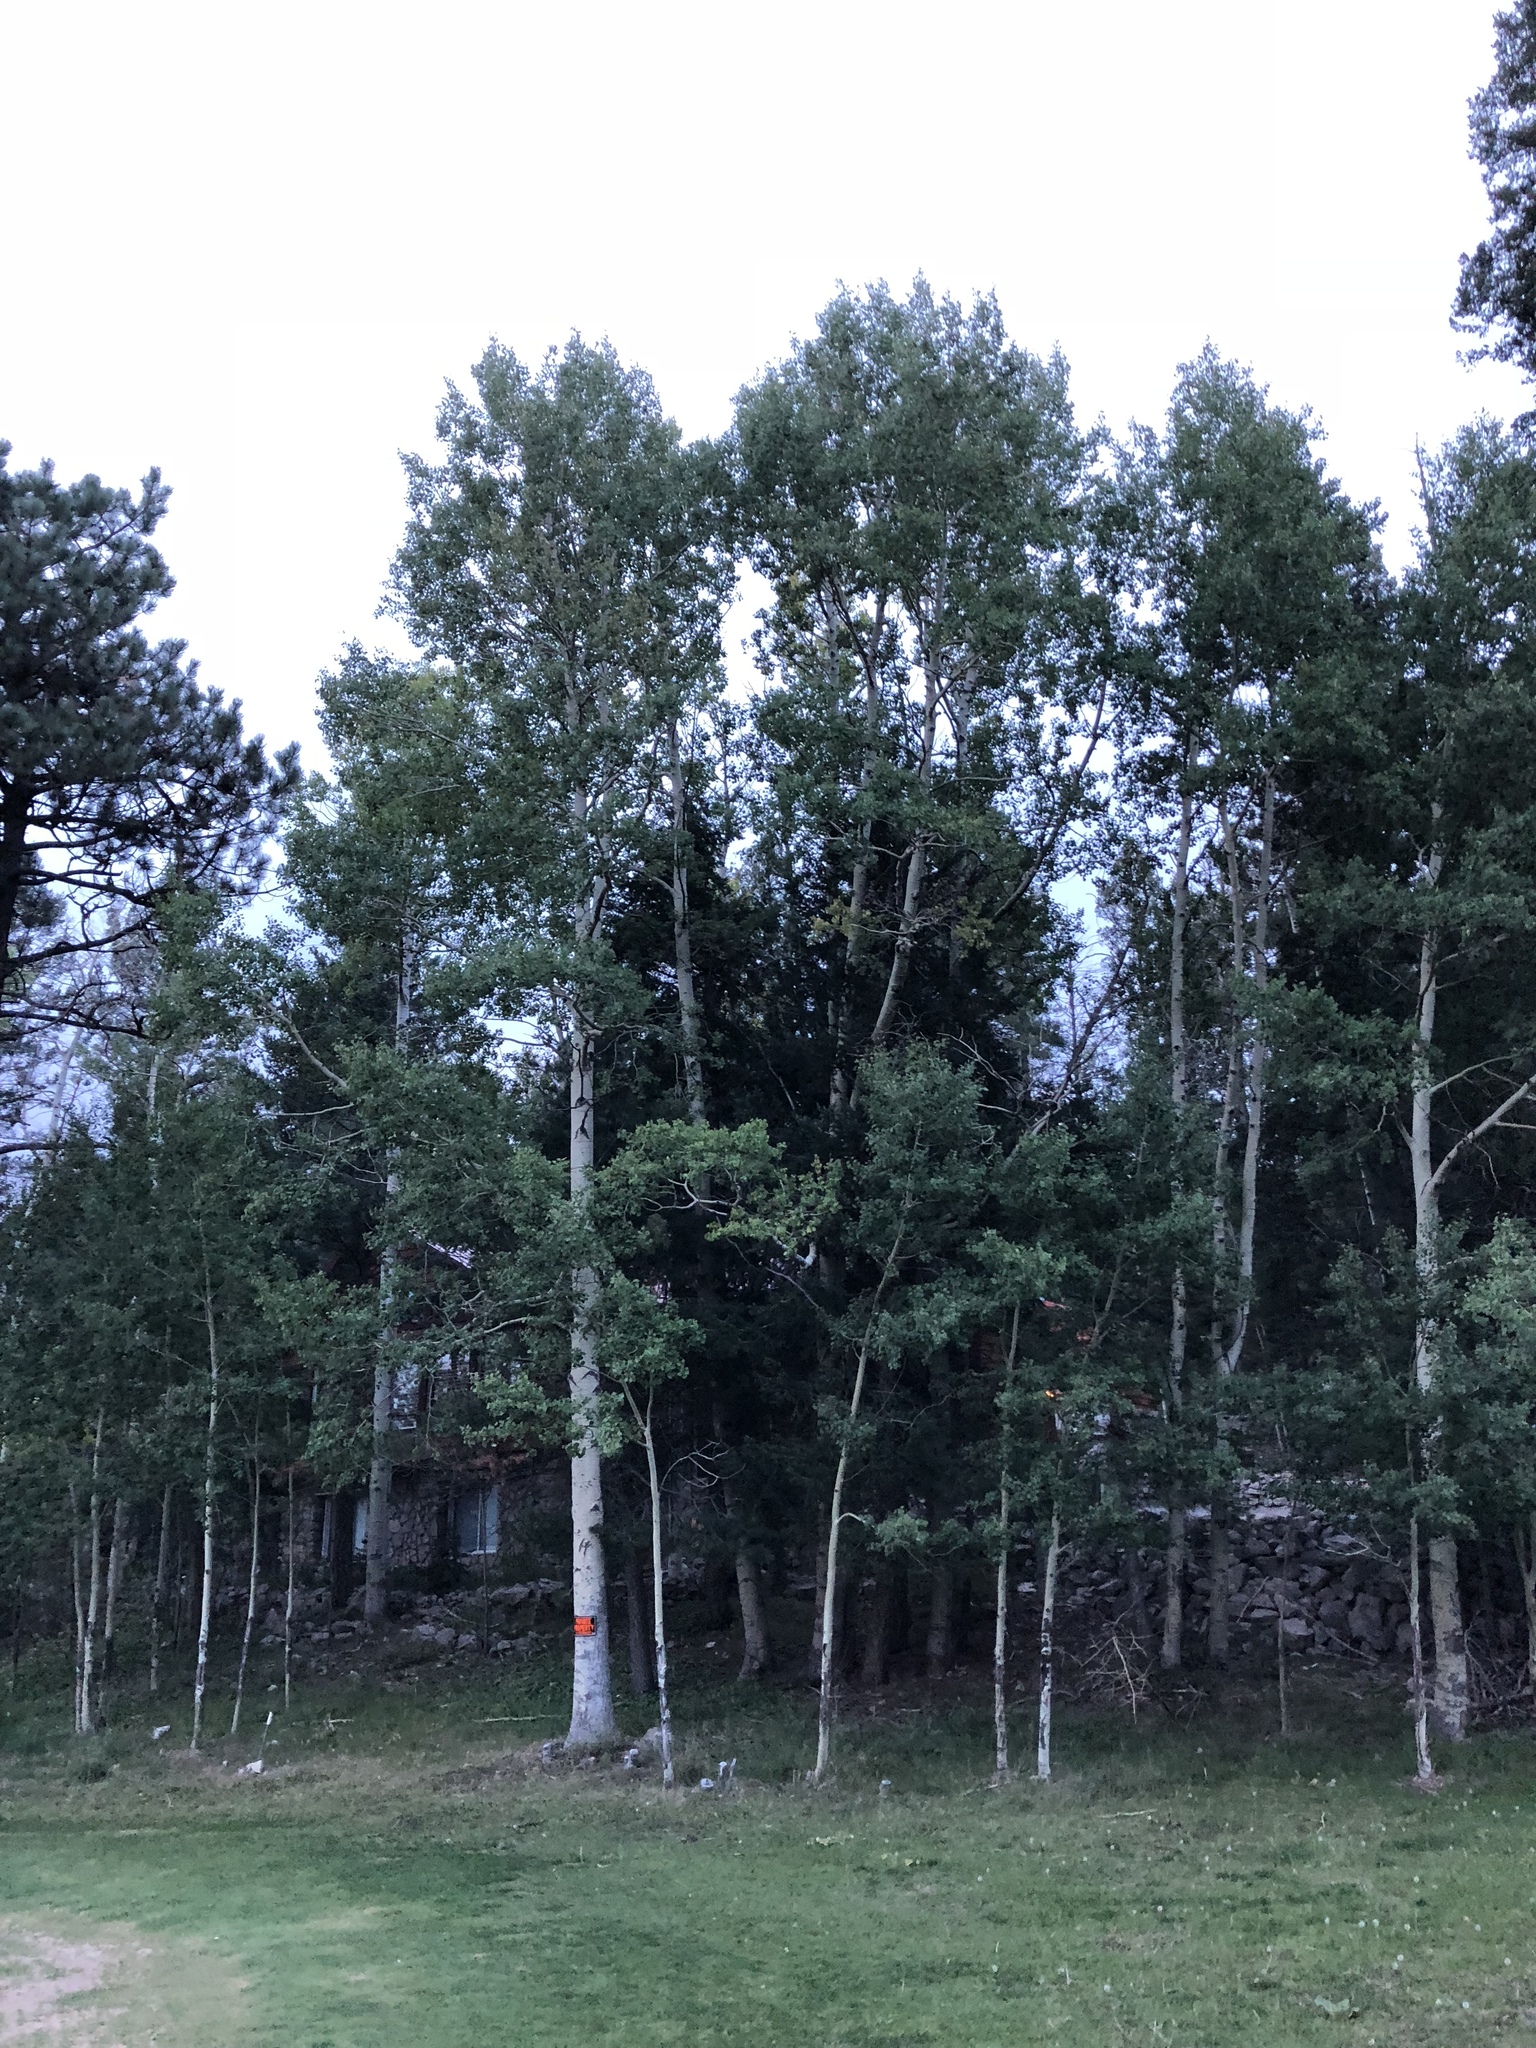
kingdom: Plantae
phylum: Tracheophyta
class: Magnoliopsida
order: Malpighiales
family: Salicaceae
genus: Populus
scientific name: Populus tremuloides
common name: Quaking aspen
